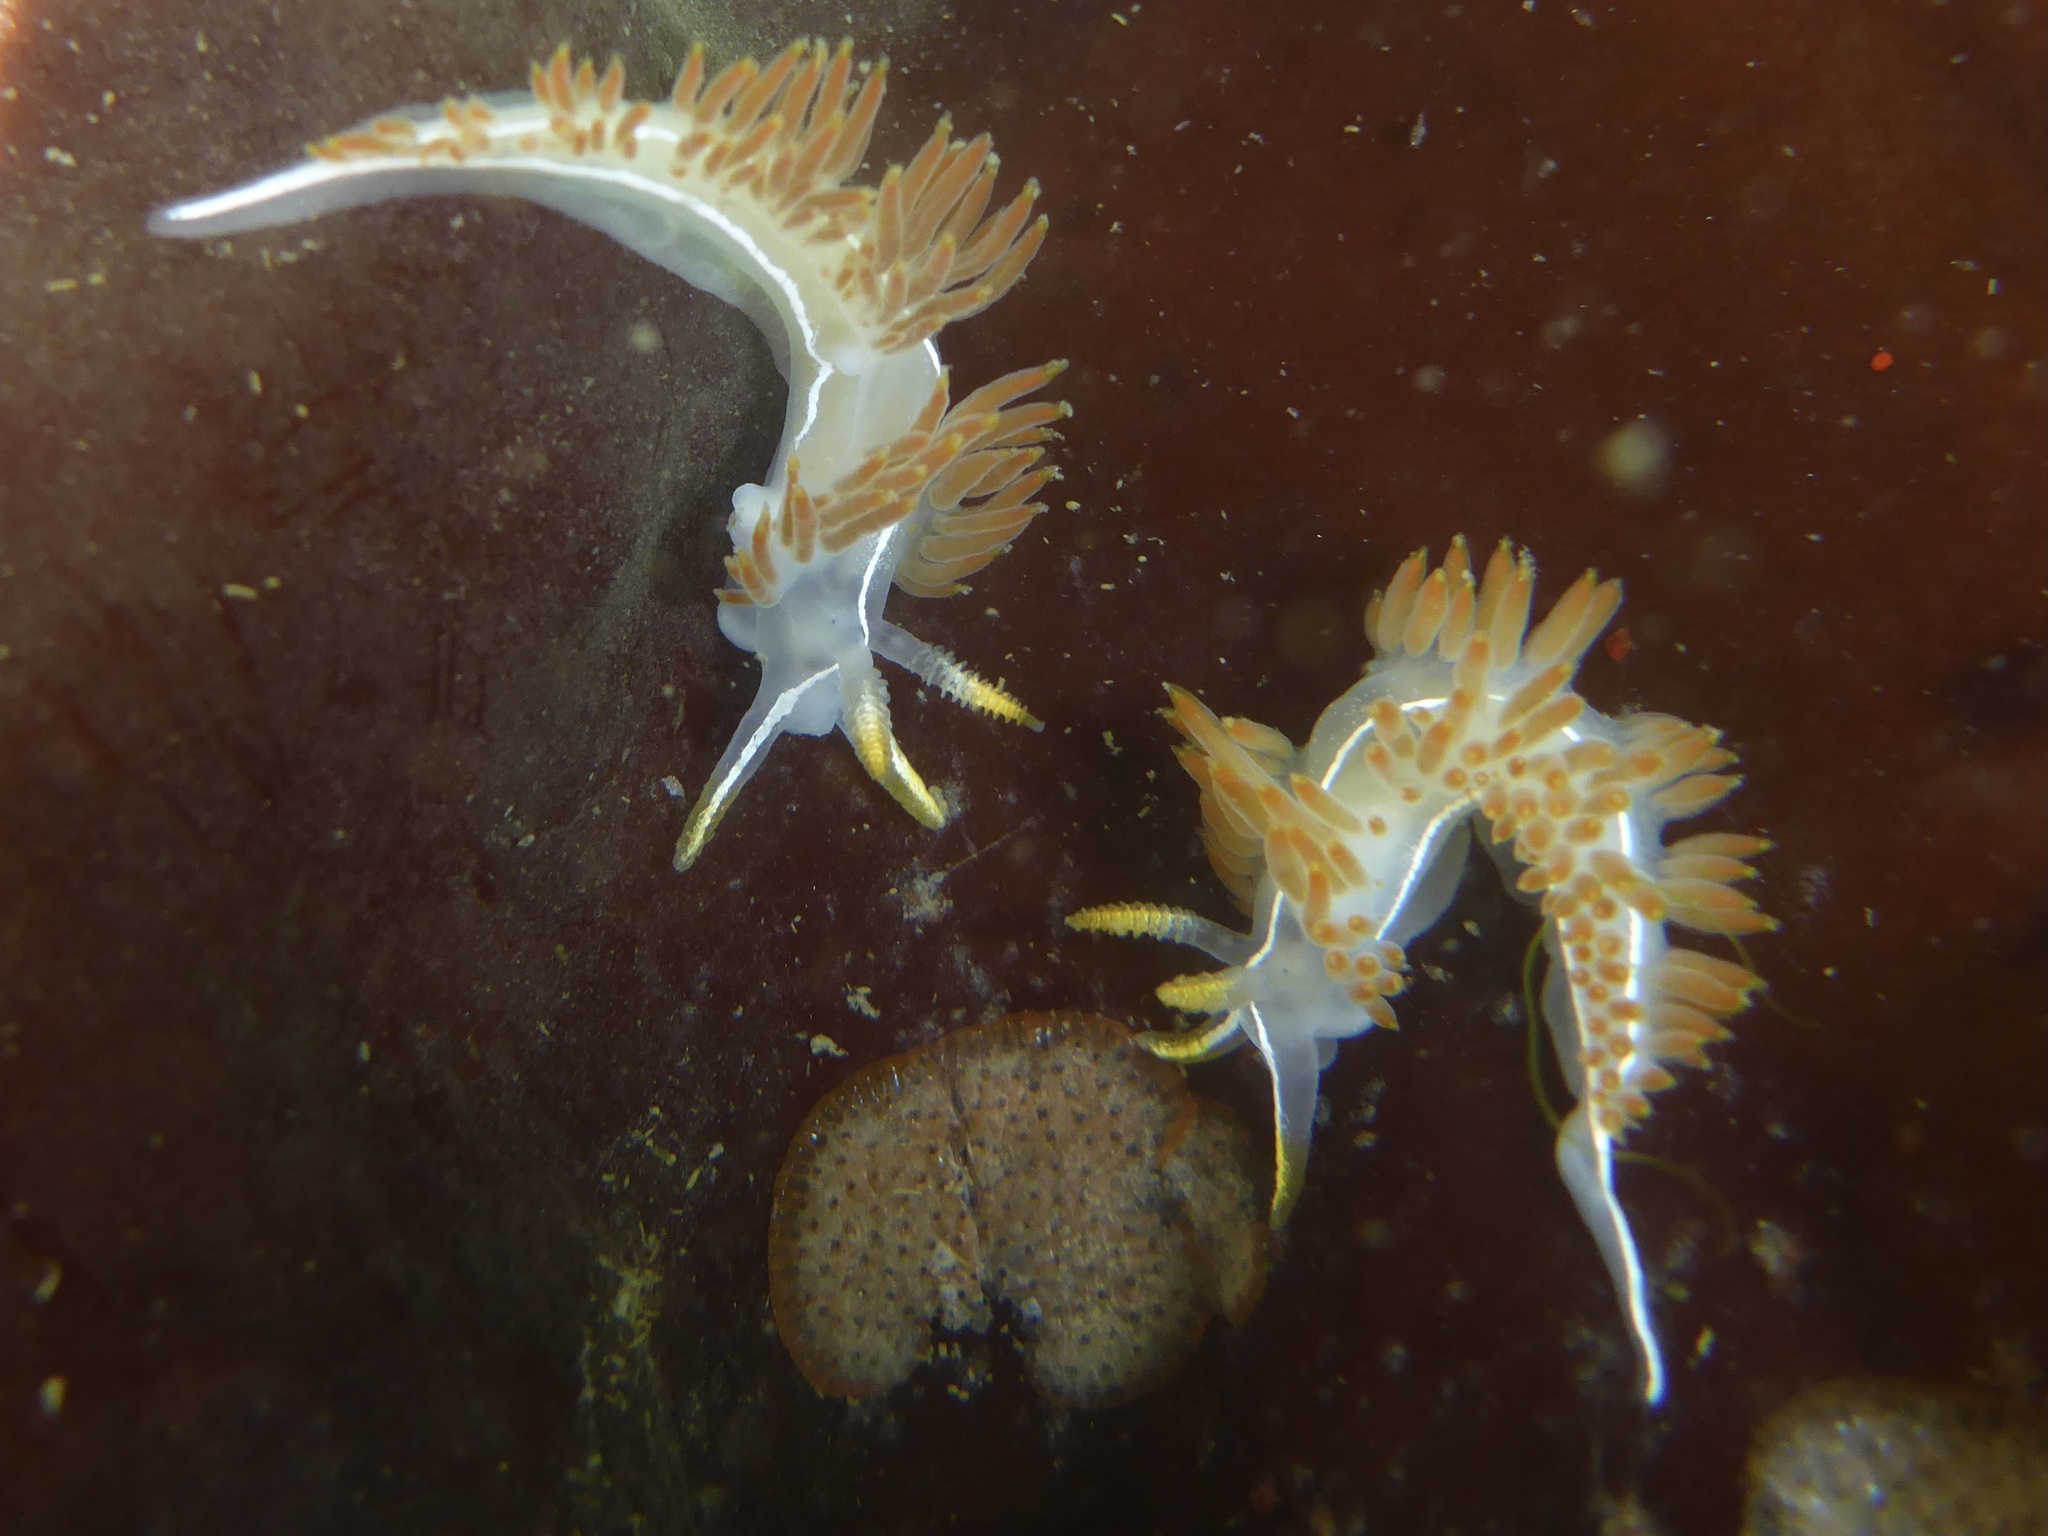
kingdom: Animalia
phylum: Mollusca
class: Gastropoda
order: Nudibranchia
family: Coryphellidae
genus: Coryphella
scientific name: Coryphella trilineata
